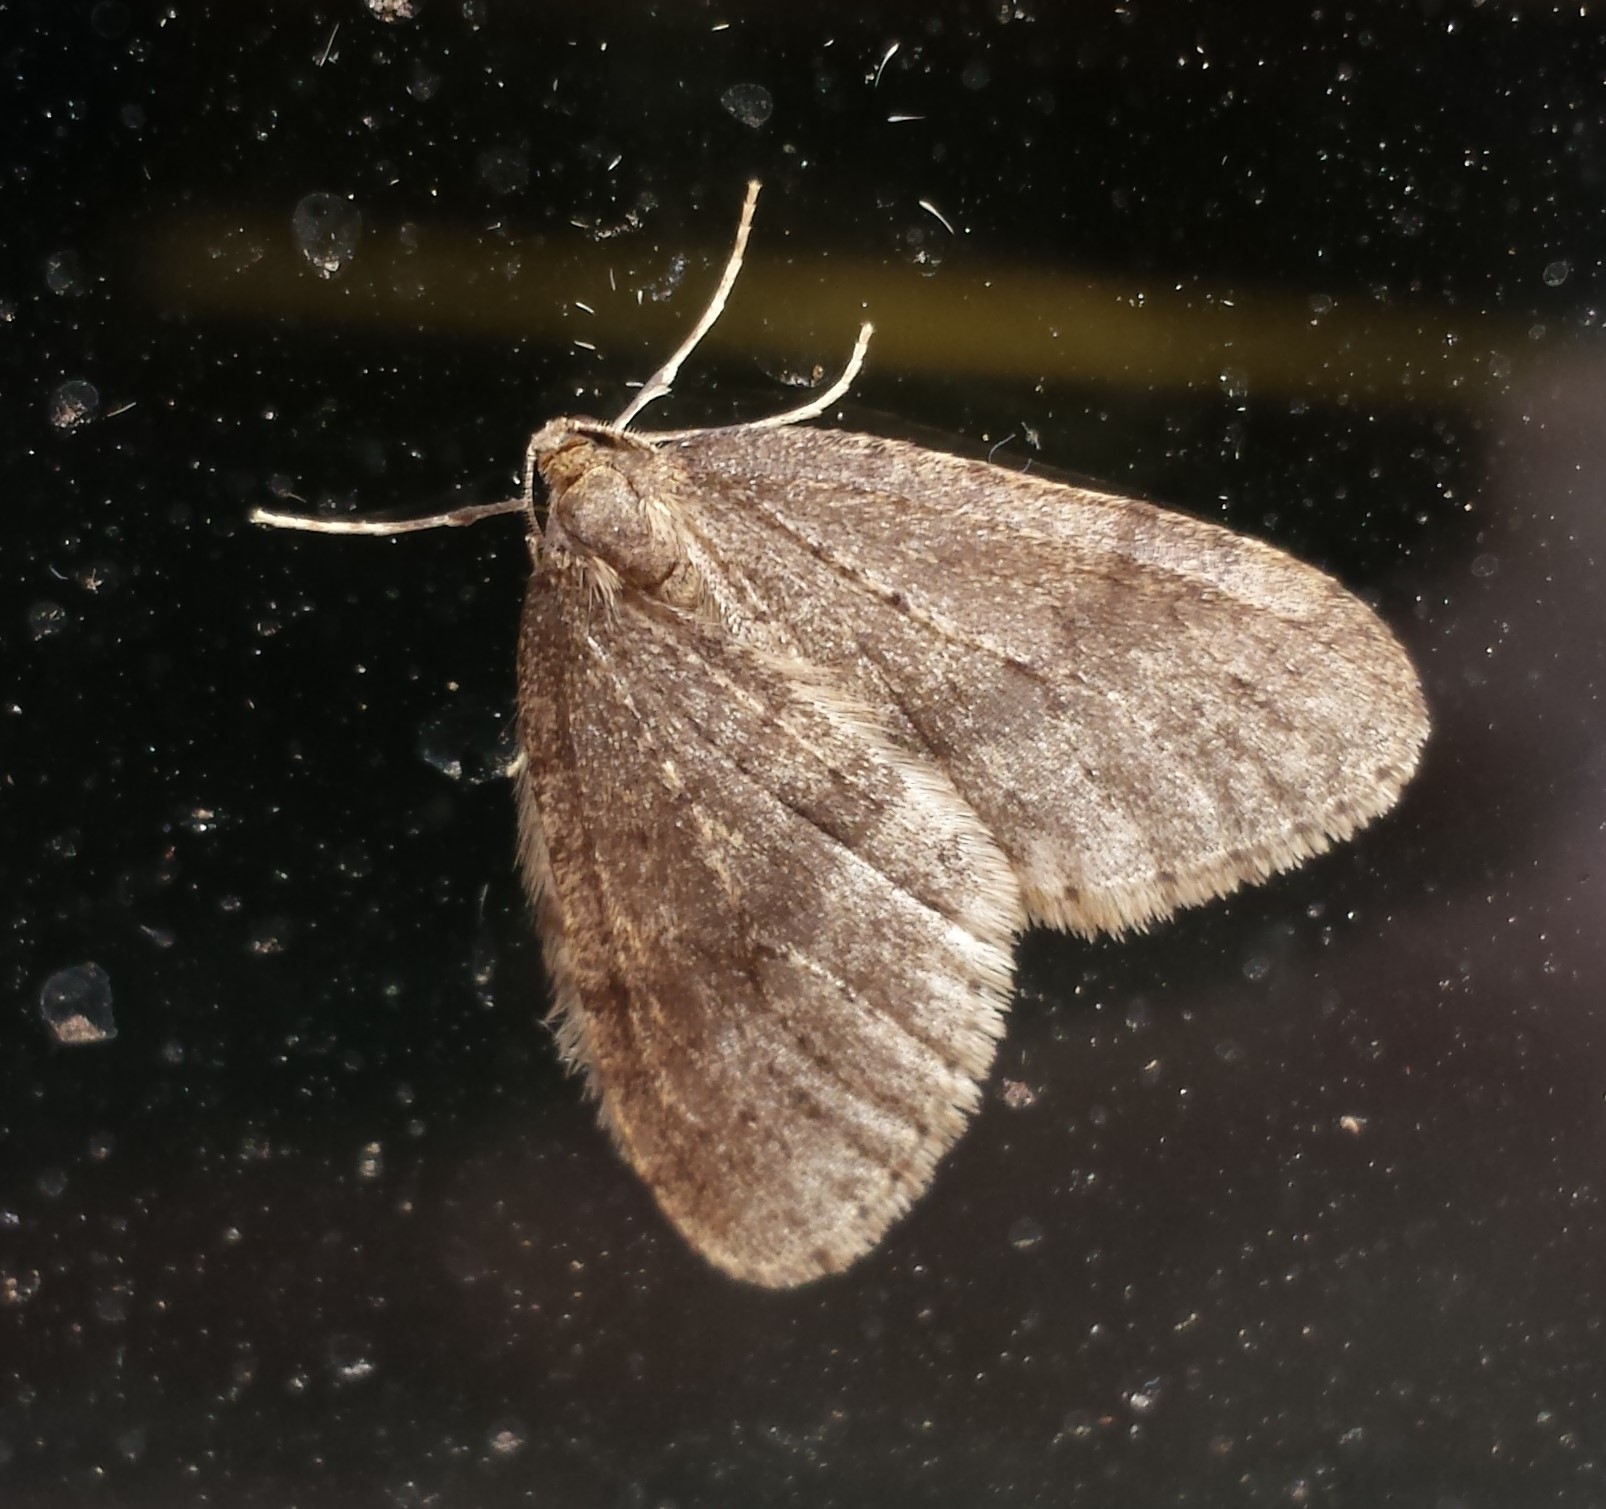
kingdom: Animalia
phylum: Arthropoda
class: Insecta
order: Lepidoptera
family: Geometridae
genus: Operophtera
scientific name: Operophtera brumata
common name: Winter moth
